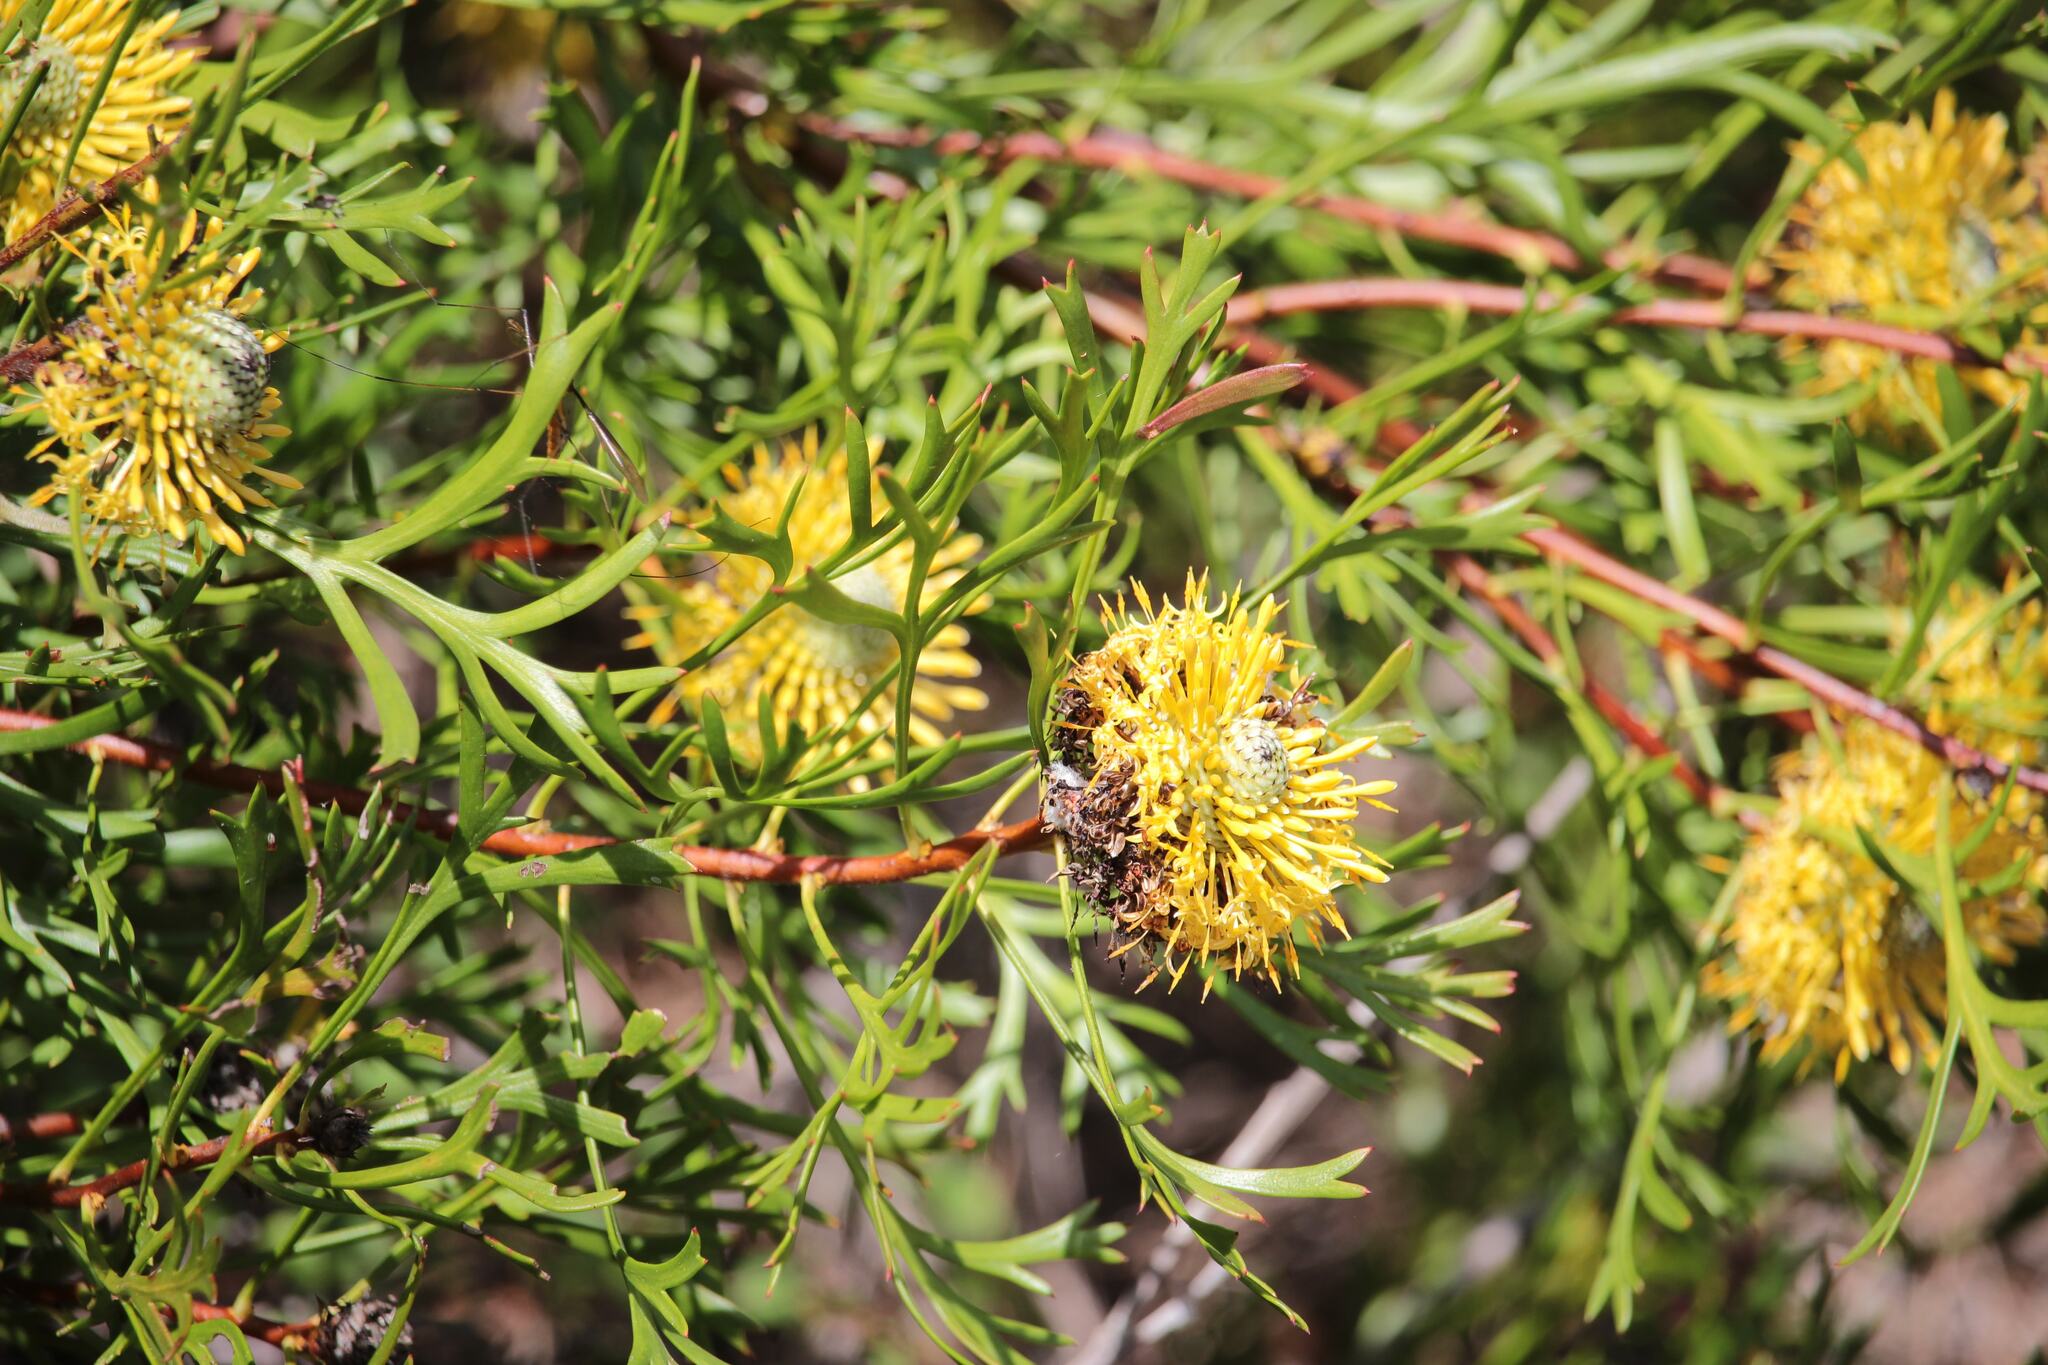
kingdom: Plantae
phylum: Tracheophyta
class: Magnoliopsida
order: Proteales
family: Proteaceae
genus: Isopogon
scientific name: Isopogon anemonifolius
